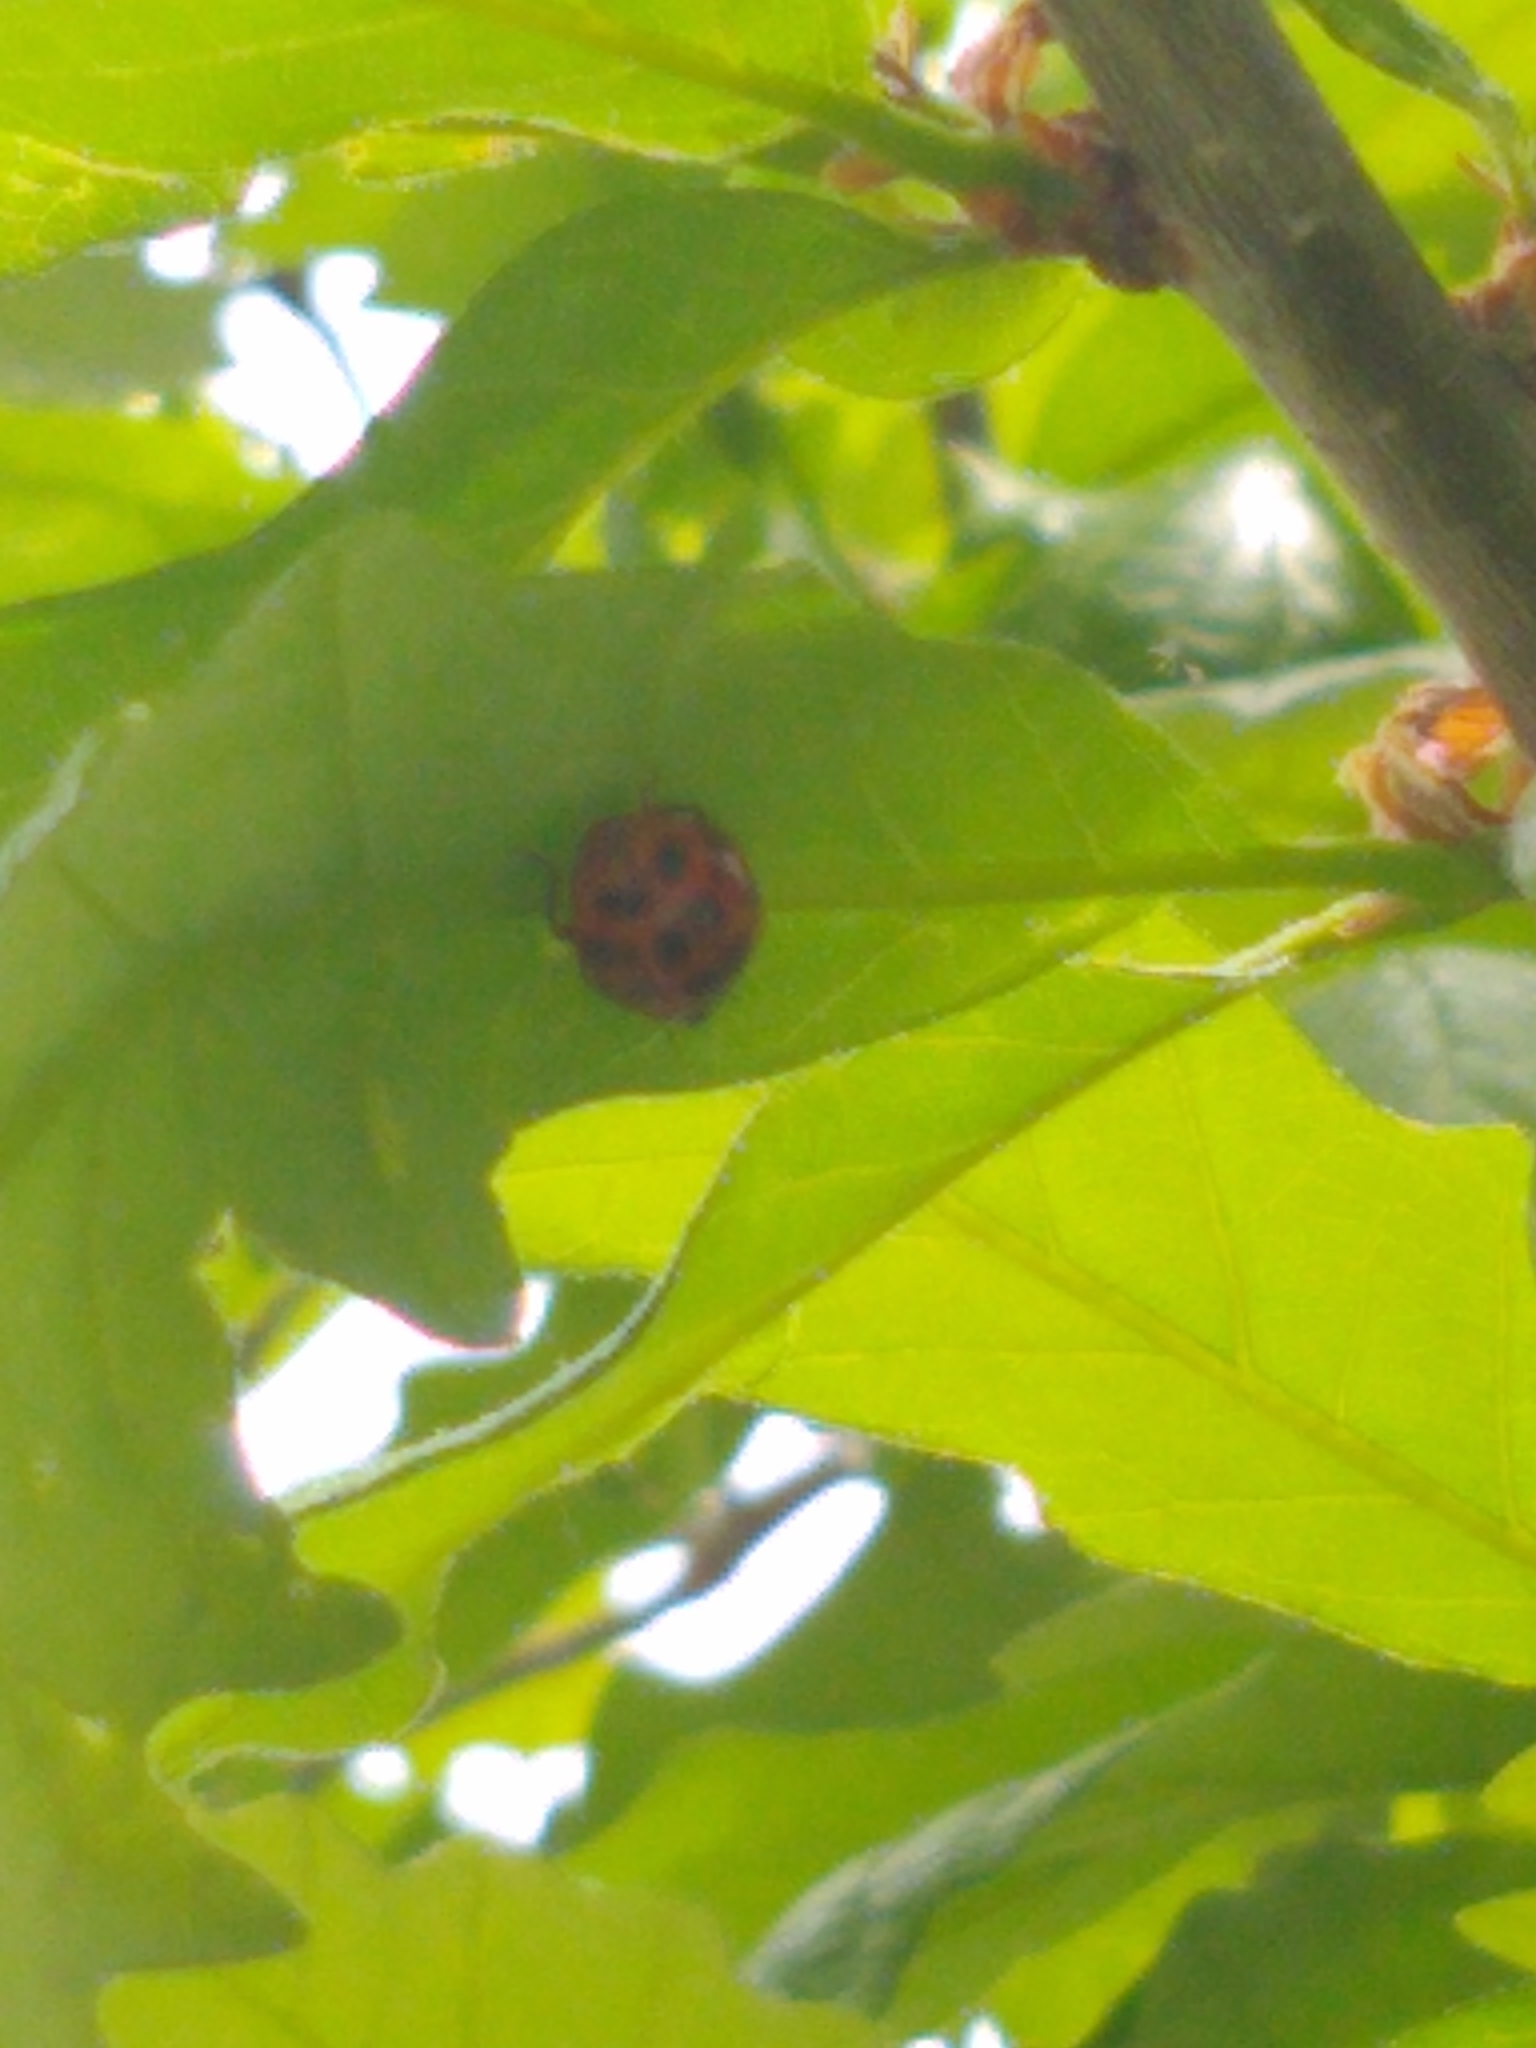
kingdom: Animalia
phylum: Arthropoda
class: Insecta
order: Coleoptera
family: Coccinellidae
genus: Harmonia
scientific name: Harmonia axyridis
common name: Harlequin ladybird
